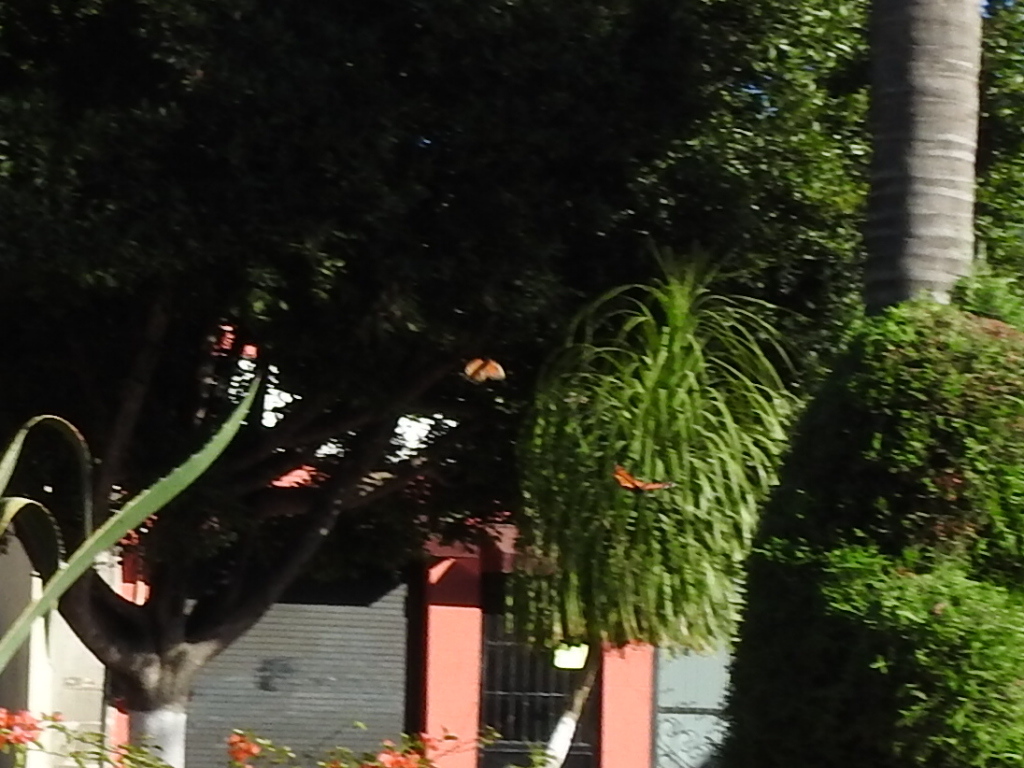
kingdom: Animalia
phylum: Arthropoda
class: Insecta
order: Lepidoptera
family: Nymphalidae
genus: Danaus
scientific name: Danaus plexippus
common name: Monarch
